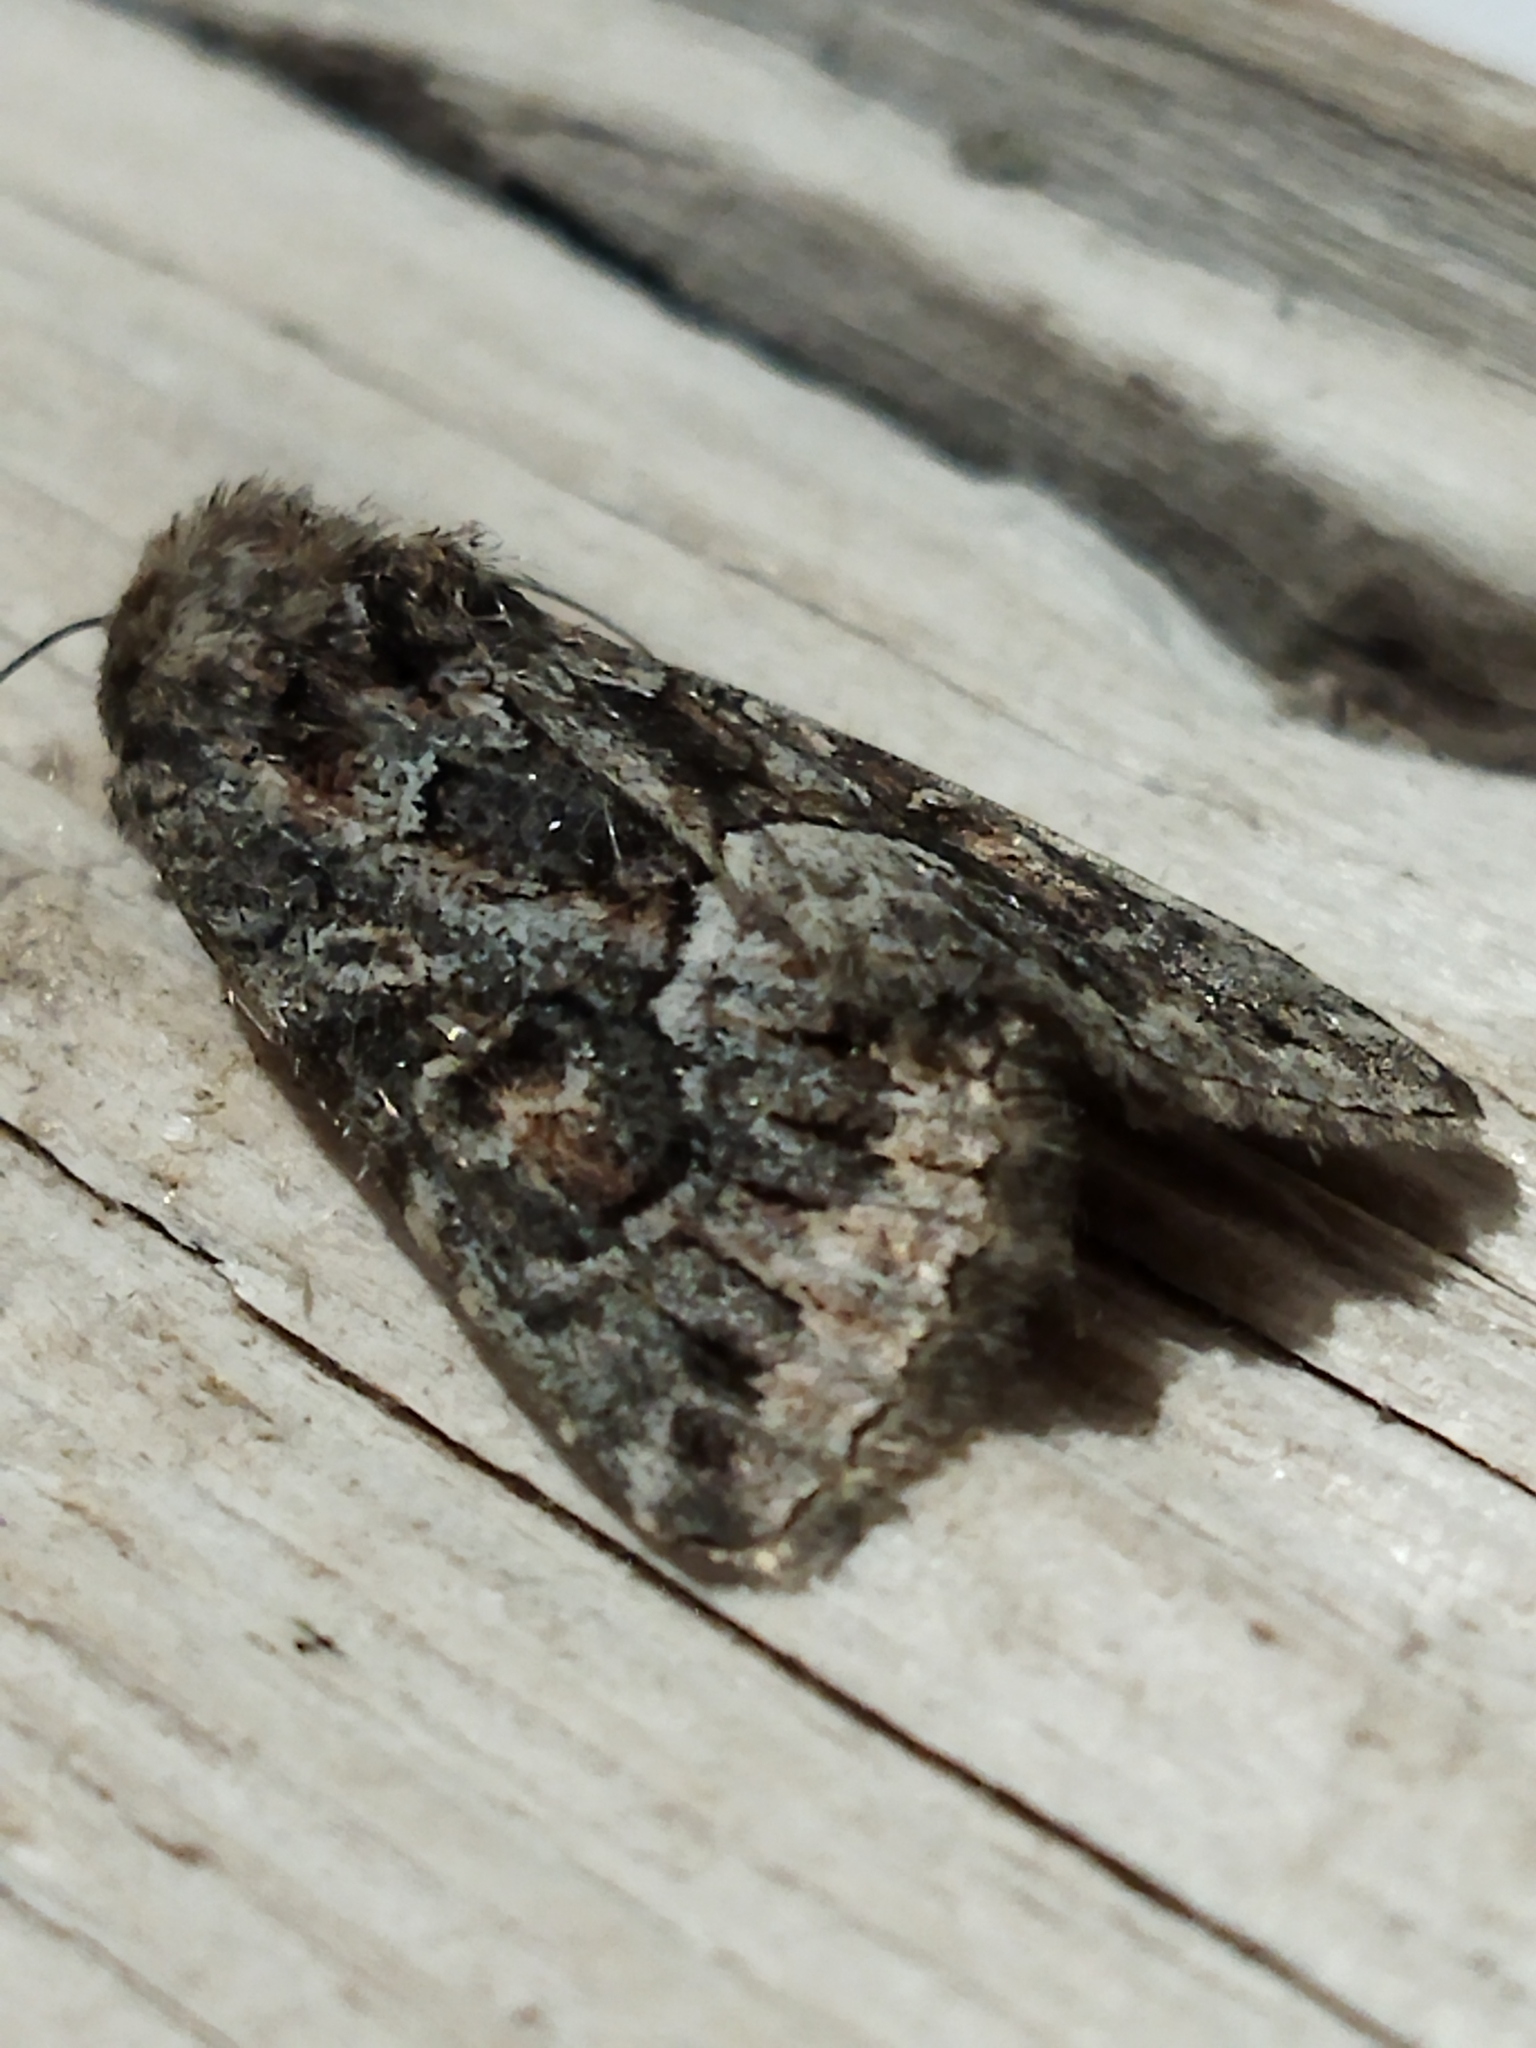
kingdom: Animalia
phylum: Arthropoda
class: Insecta
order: Lepidoptera
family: Noctuidae
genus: Thalpophila
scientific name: Thalpophila matura
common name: Straw underwing
